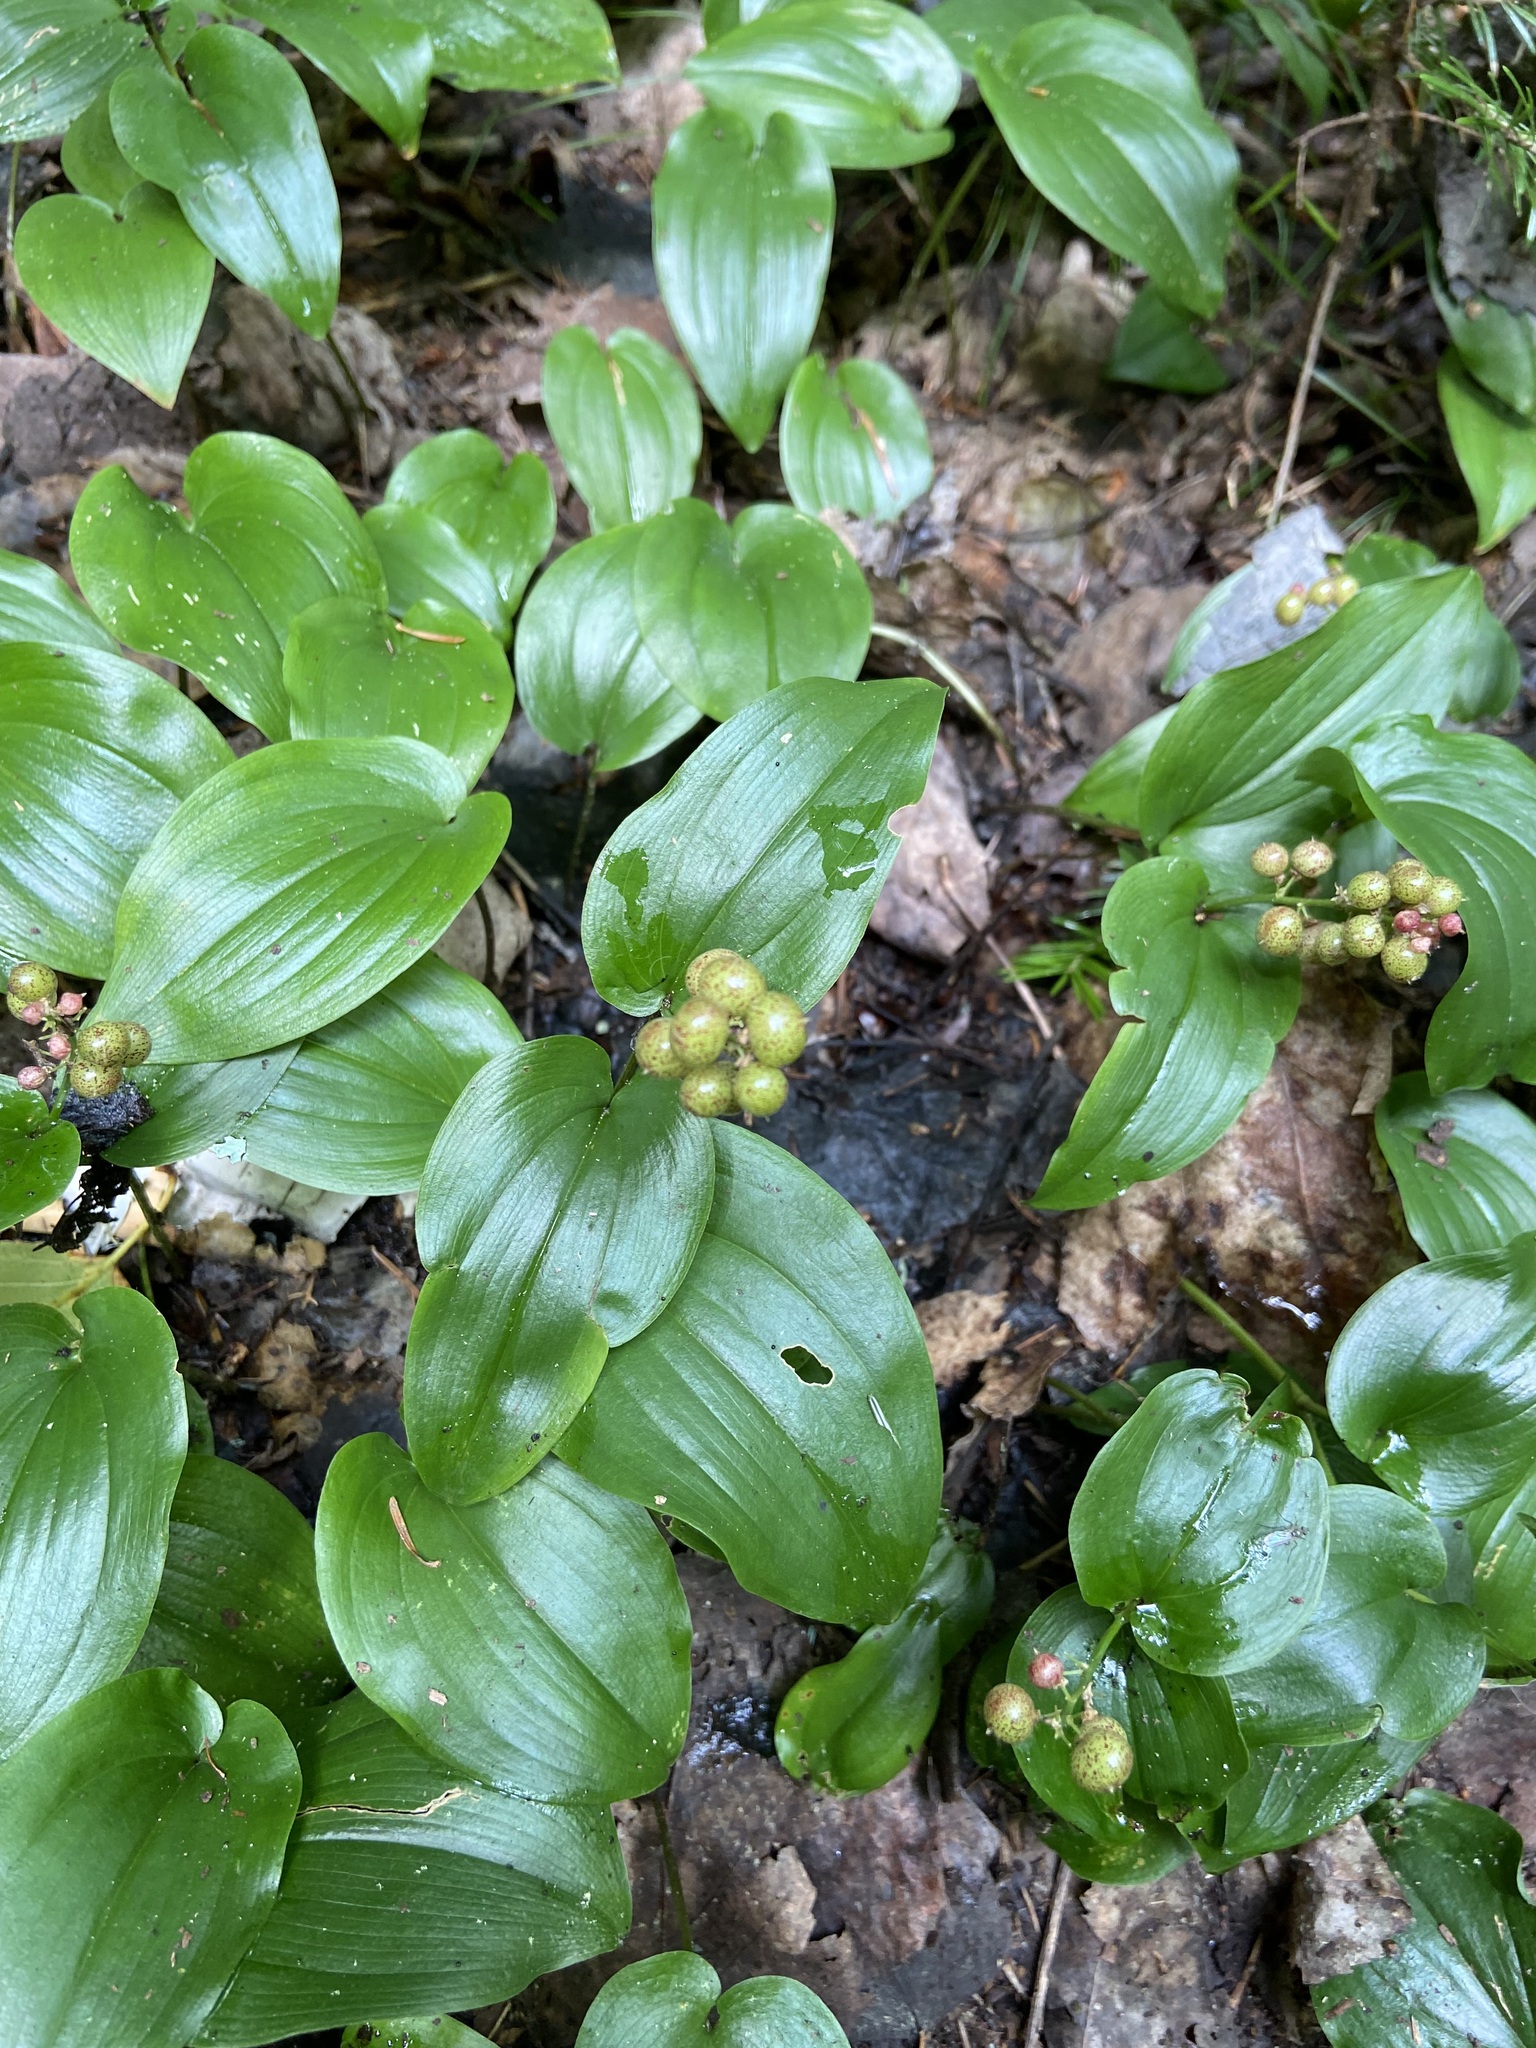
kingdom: Plantae
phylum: Tracheophyta
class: Liliopsida
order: Asparagales
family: Asparagaceae
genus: Maianthemum
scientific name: Maianthemum canadense
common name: False lily-of-the-valley
